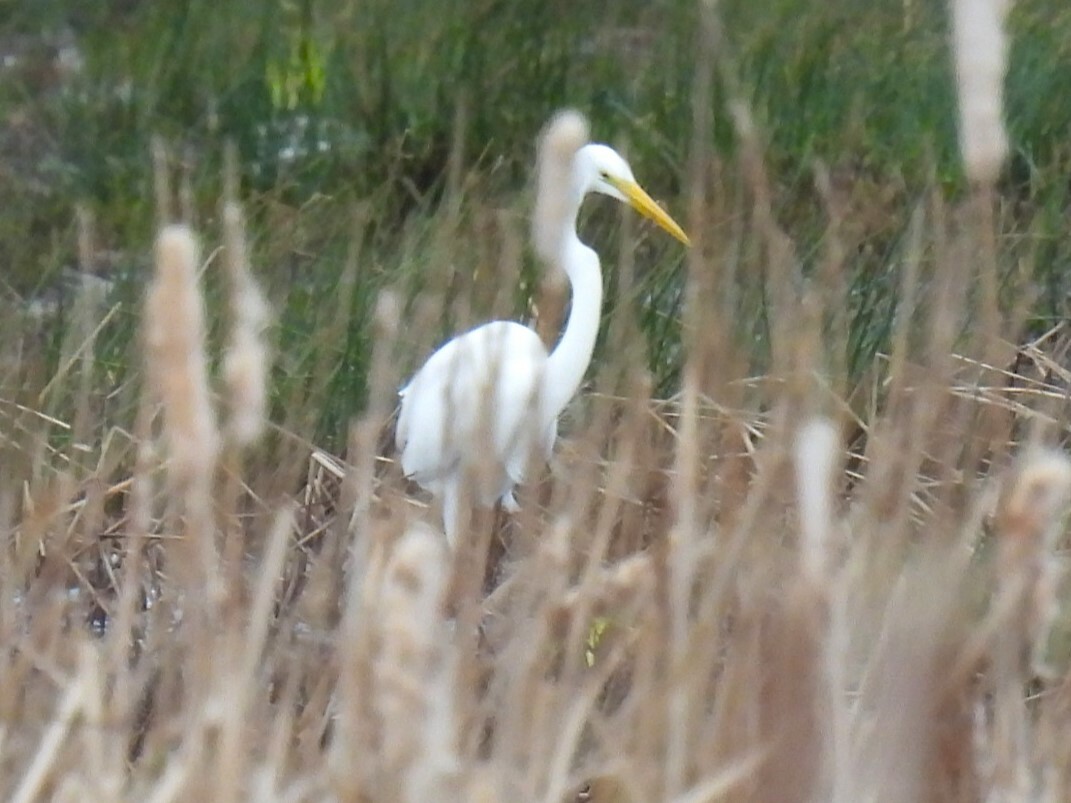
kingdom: Animalia
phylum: Chordata
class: Aves
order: Pelecaniformes
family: Ardeidae
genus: Ardea
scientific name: Ardea alba
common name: Great egret
